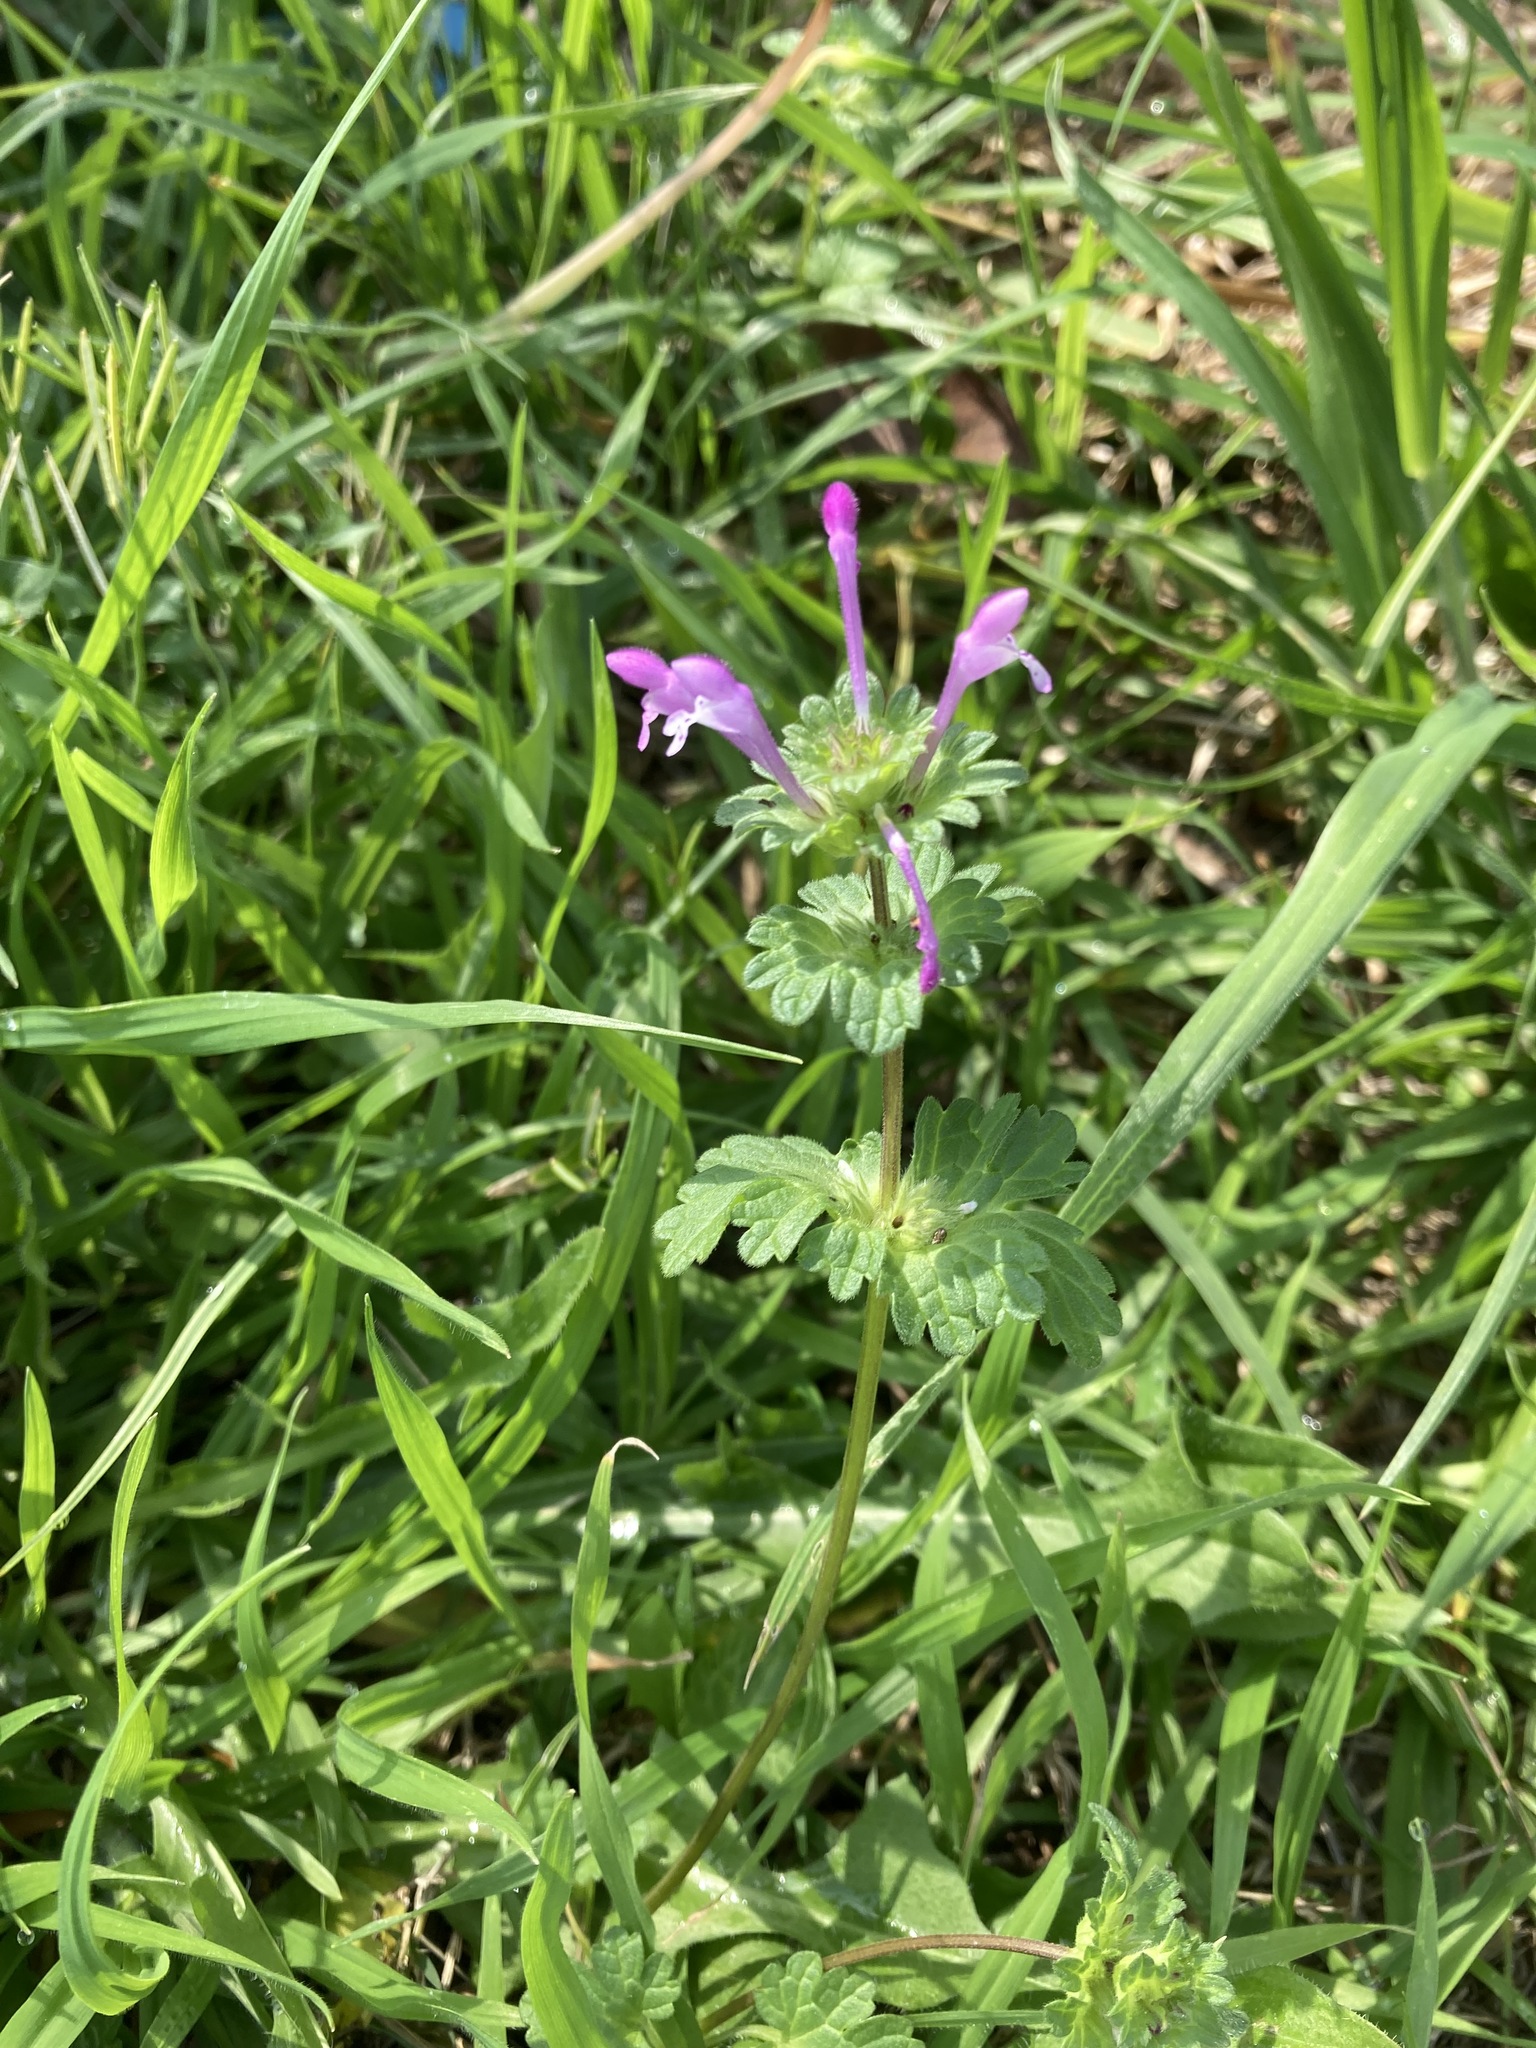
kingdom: Plantae
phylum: Tracheophyta
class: Magnoliopsida
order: Lamiales
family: Lamiaceae
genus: Lamium
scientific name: Lamium amplexicaule
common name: Henbit dead-nettle
